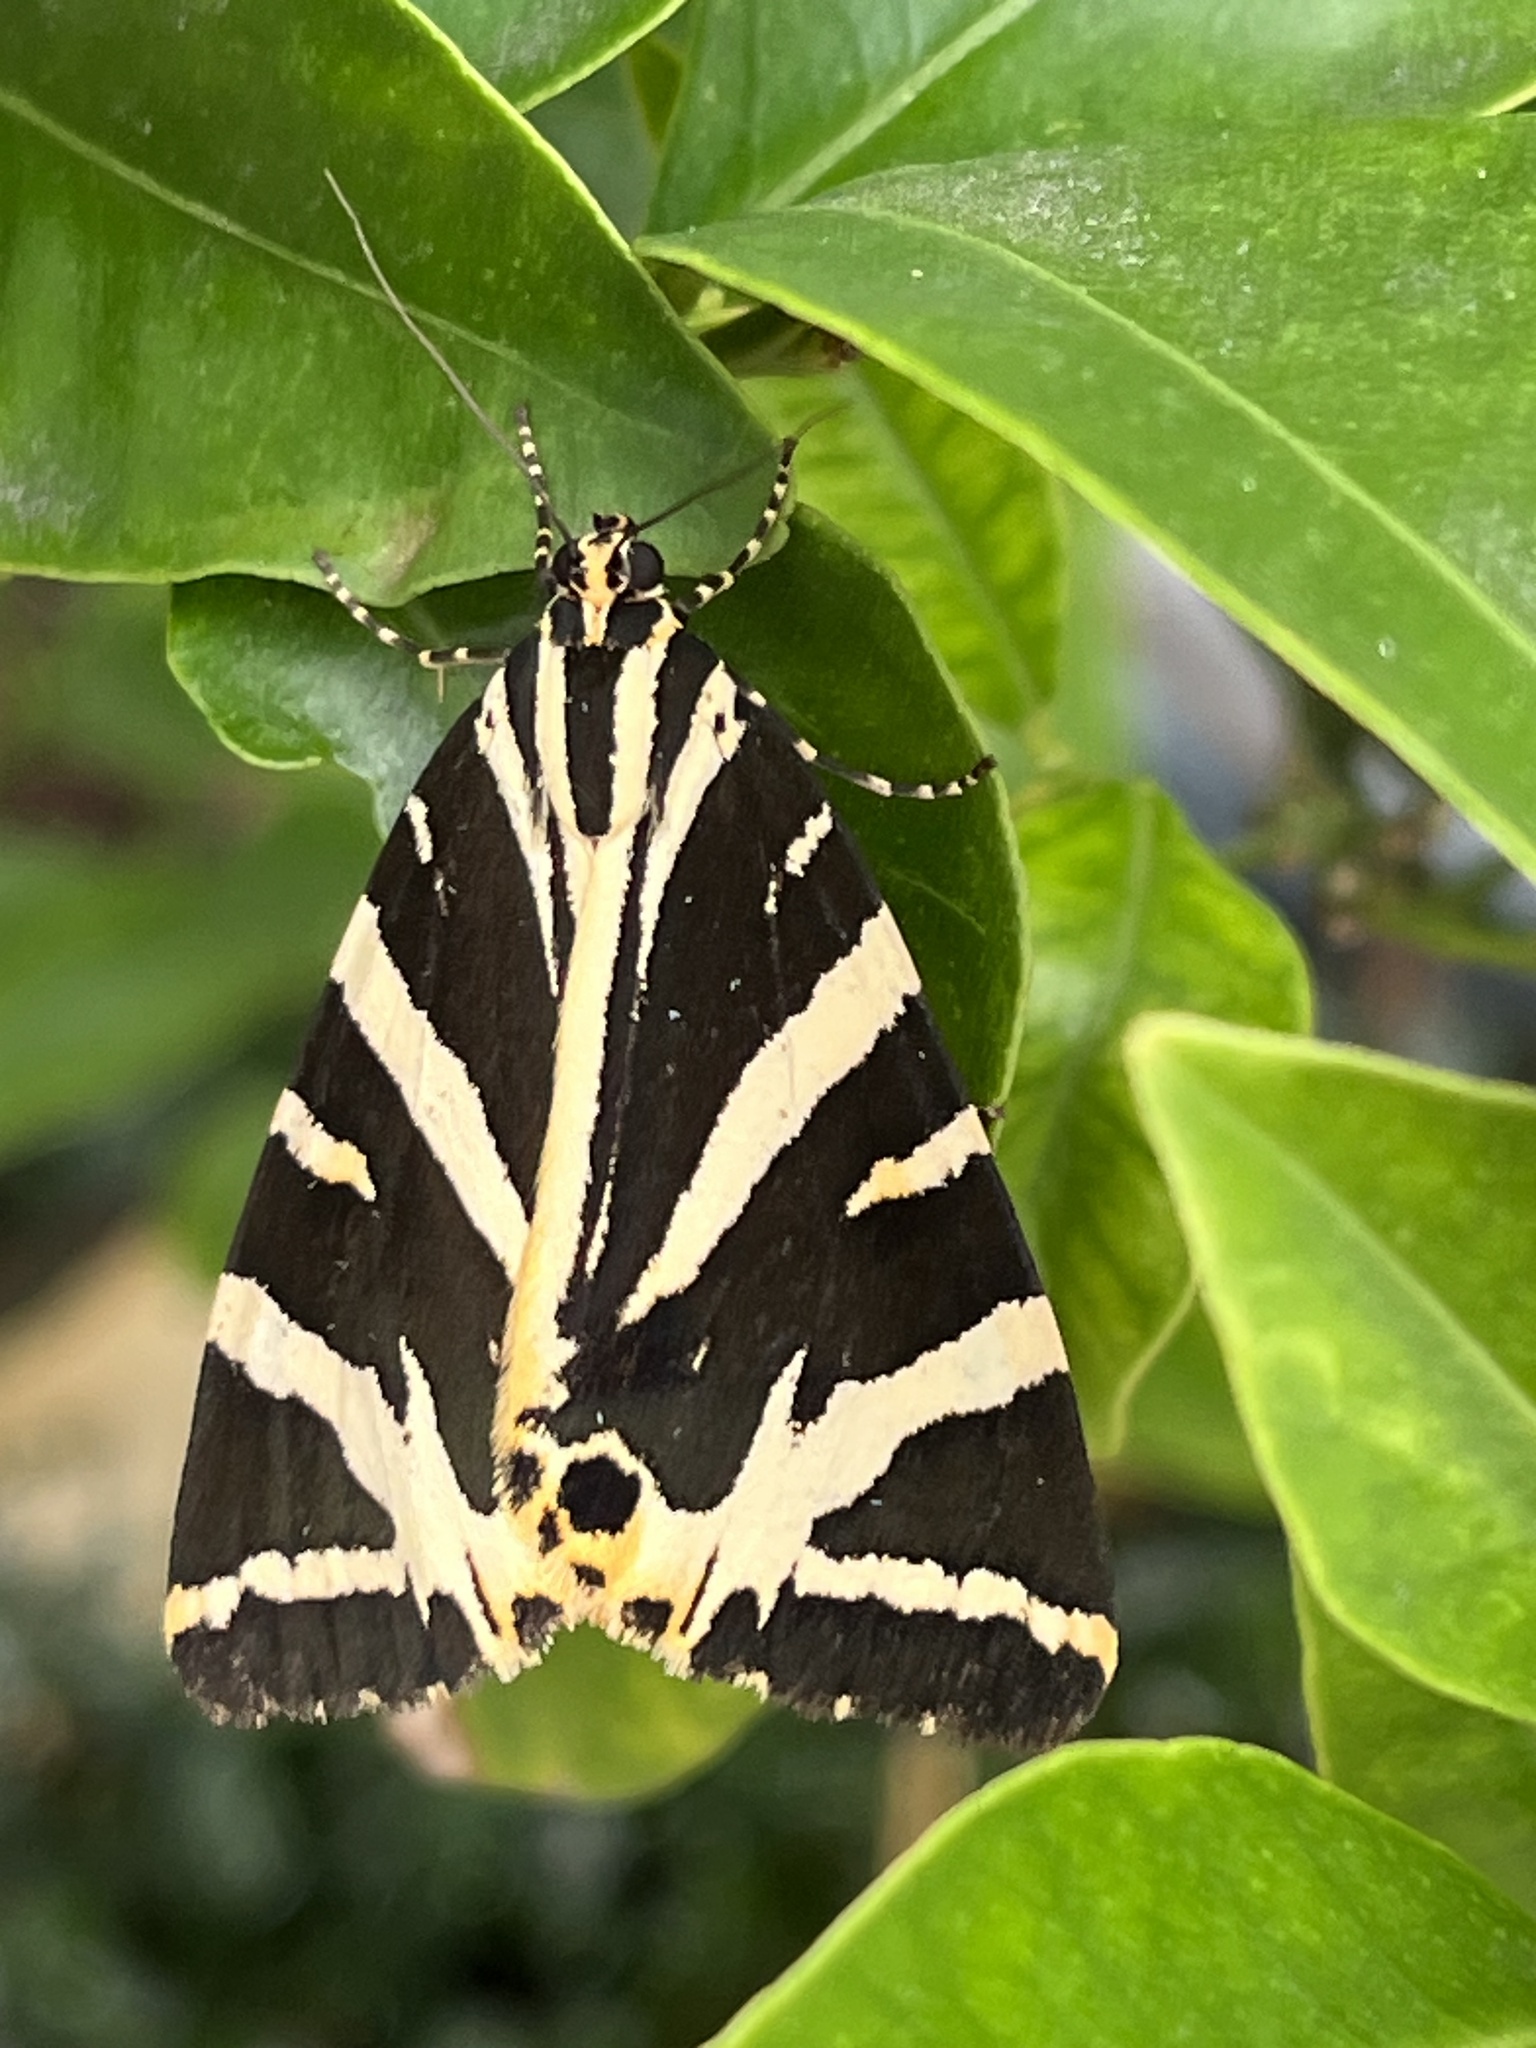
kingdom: Animalia
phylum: Arthropoda
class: Insecta
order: Lepidoptera
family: Erebidae
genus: Euplagia
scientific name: Euplagia quadripunctaria
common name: Jersey tiger
